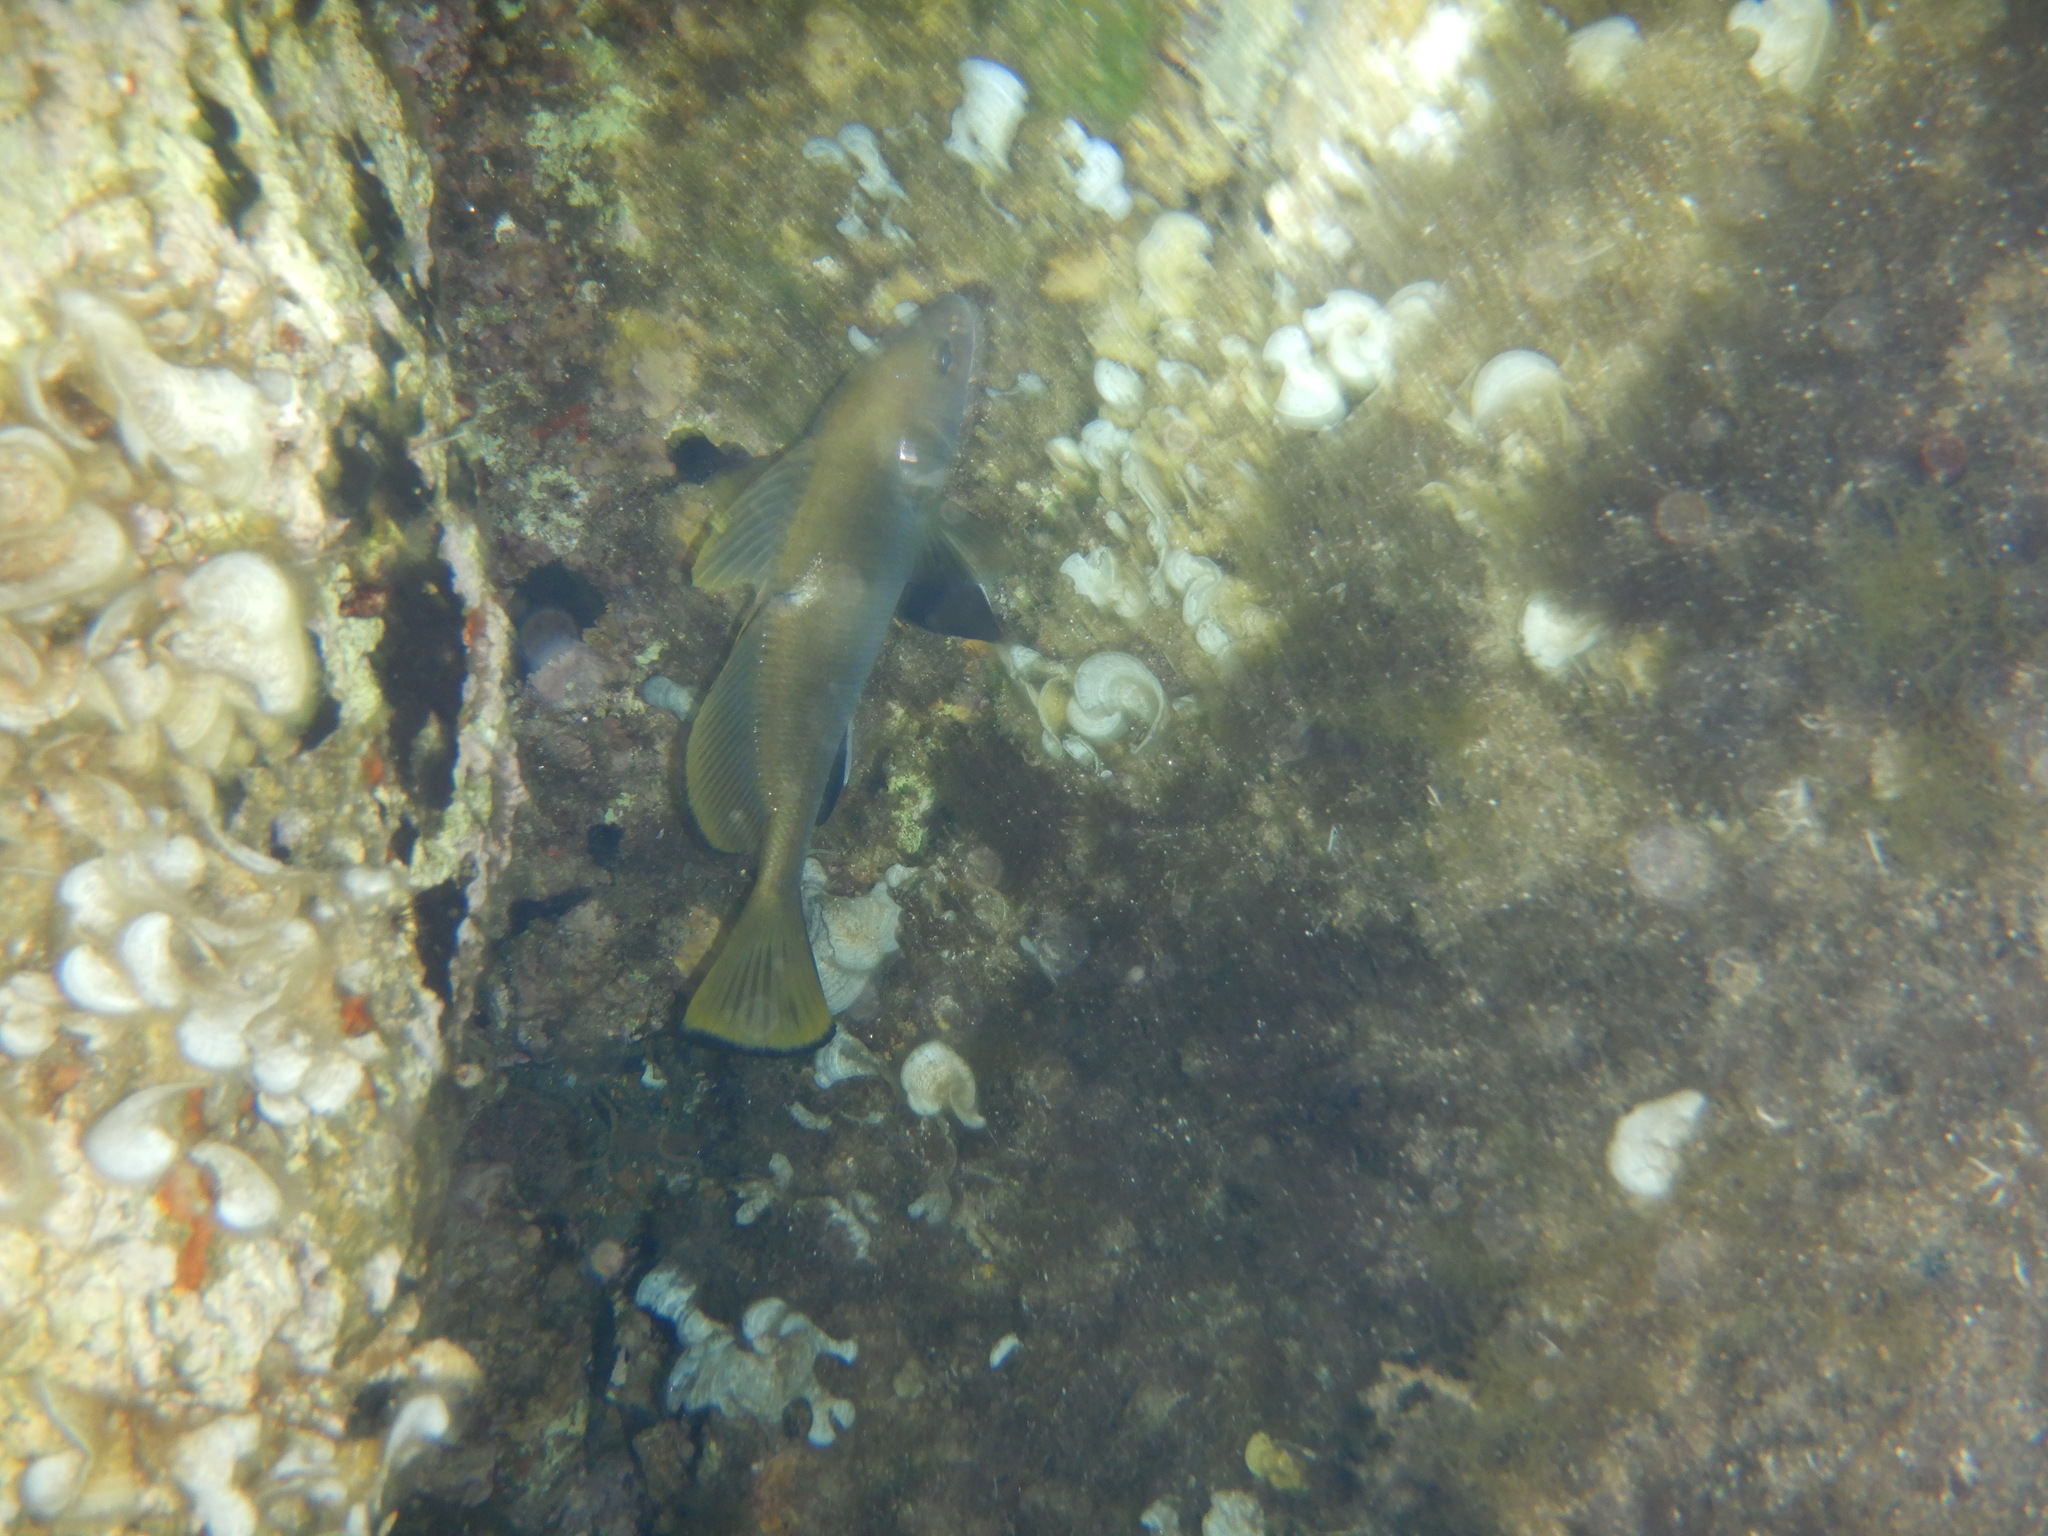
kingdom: Animalia
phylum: Chordata
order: Perciformes
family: Sciaenidae
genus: Sciaena
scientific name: Sciaena umbra
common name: Brown meagre
